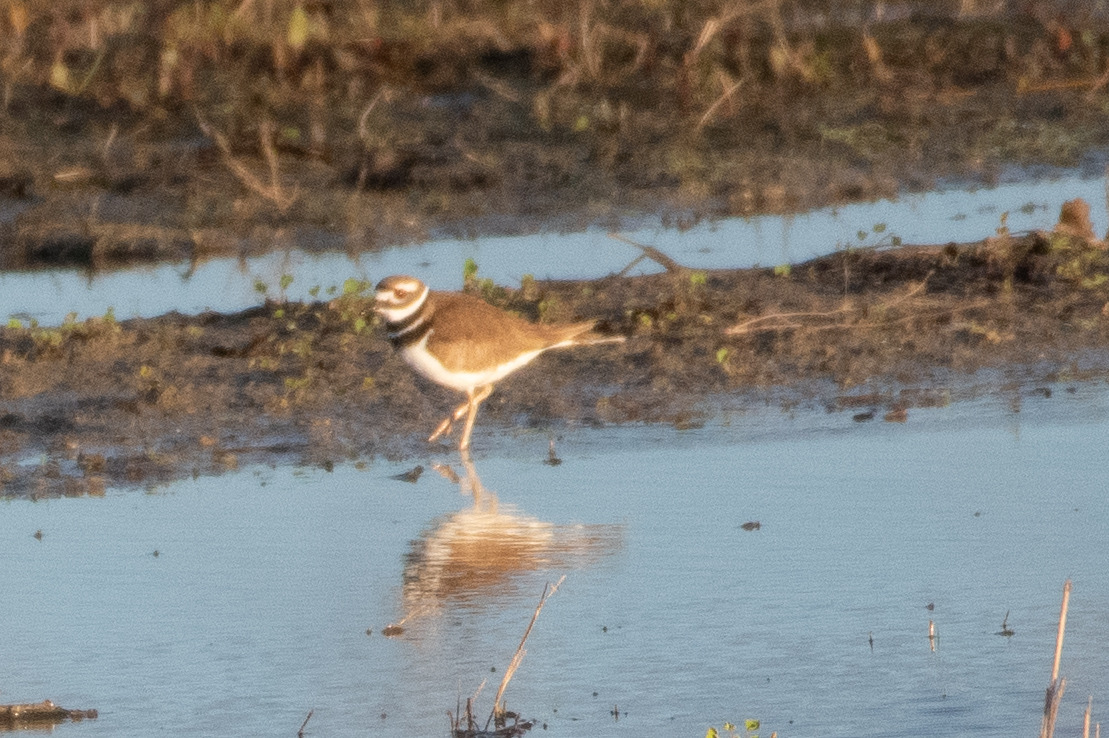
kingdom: Animalia
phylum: Chordata
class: Aves
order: Charadriiformes
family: Charadriidae
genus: Charadrius
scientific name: Charadrius vociferus
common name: Killdeer
